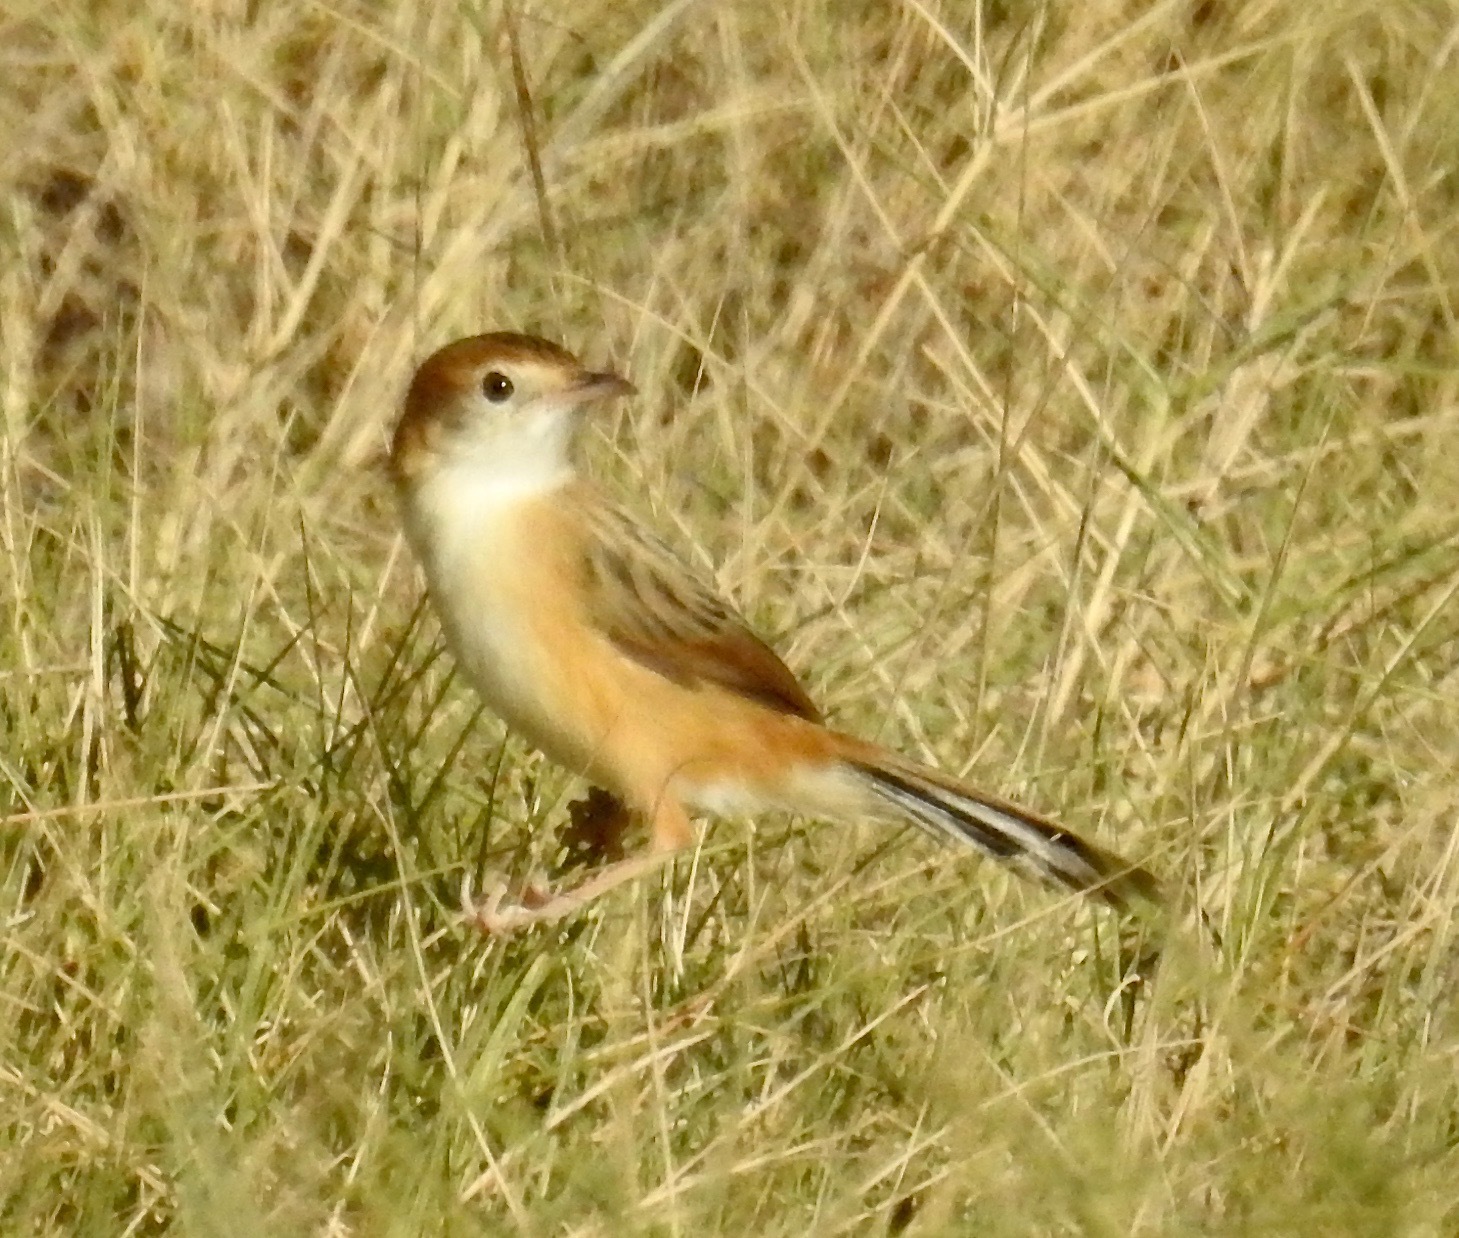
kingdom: Animalia
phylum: Chordata
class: Aves
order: Passeriformes
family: Cisticolidae
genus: Cisticola
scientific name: Cisticola exilis
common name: Golden-headed cisticola
